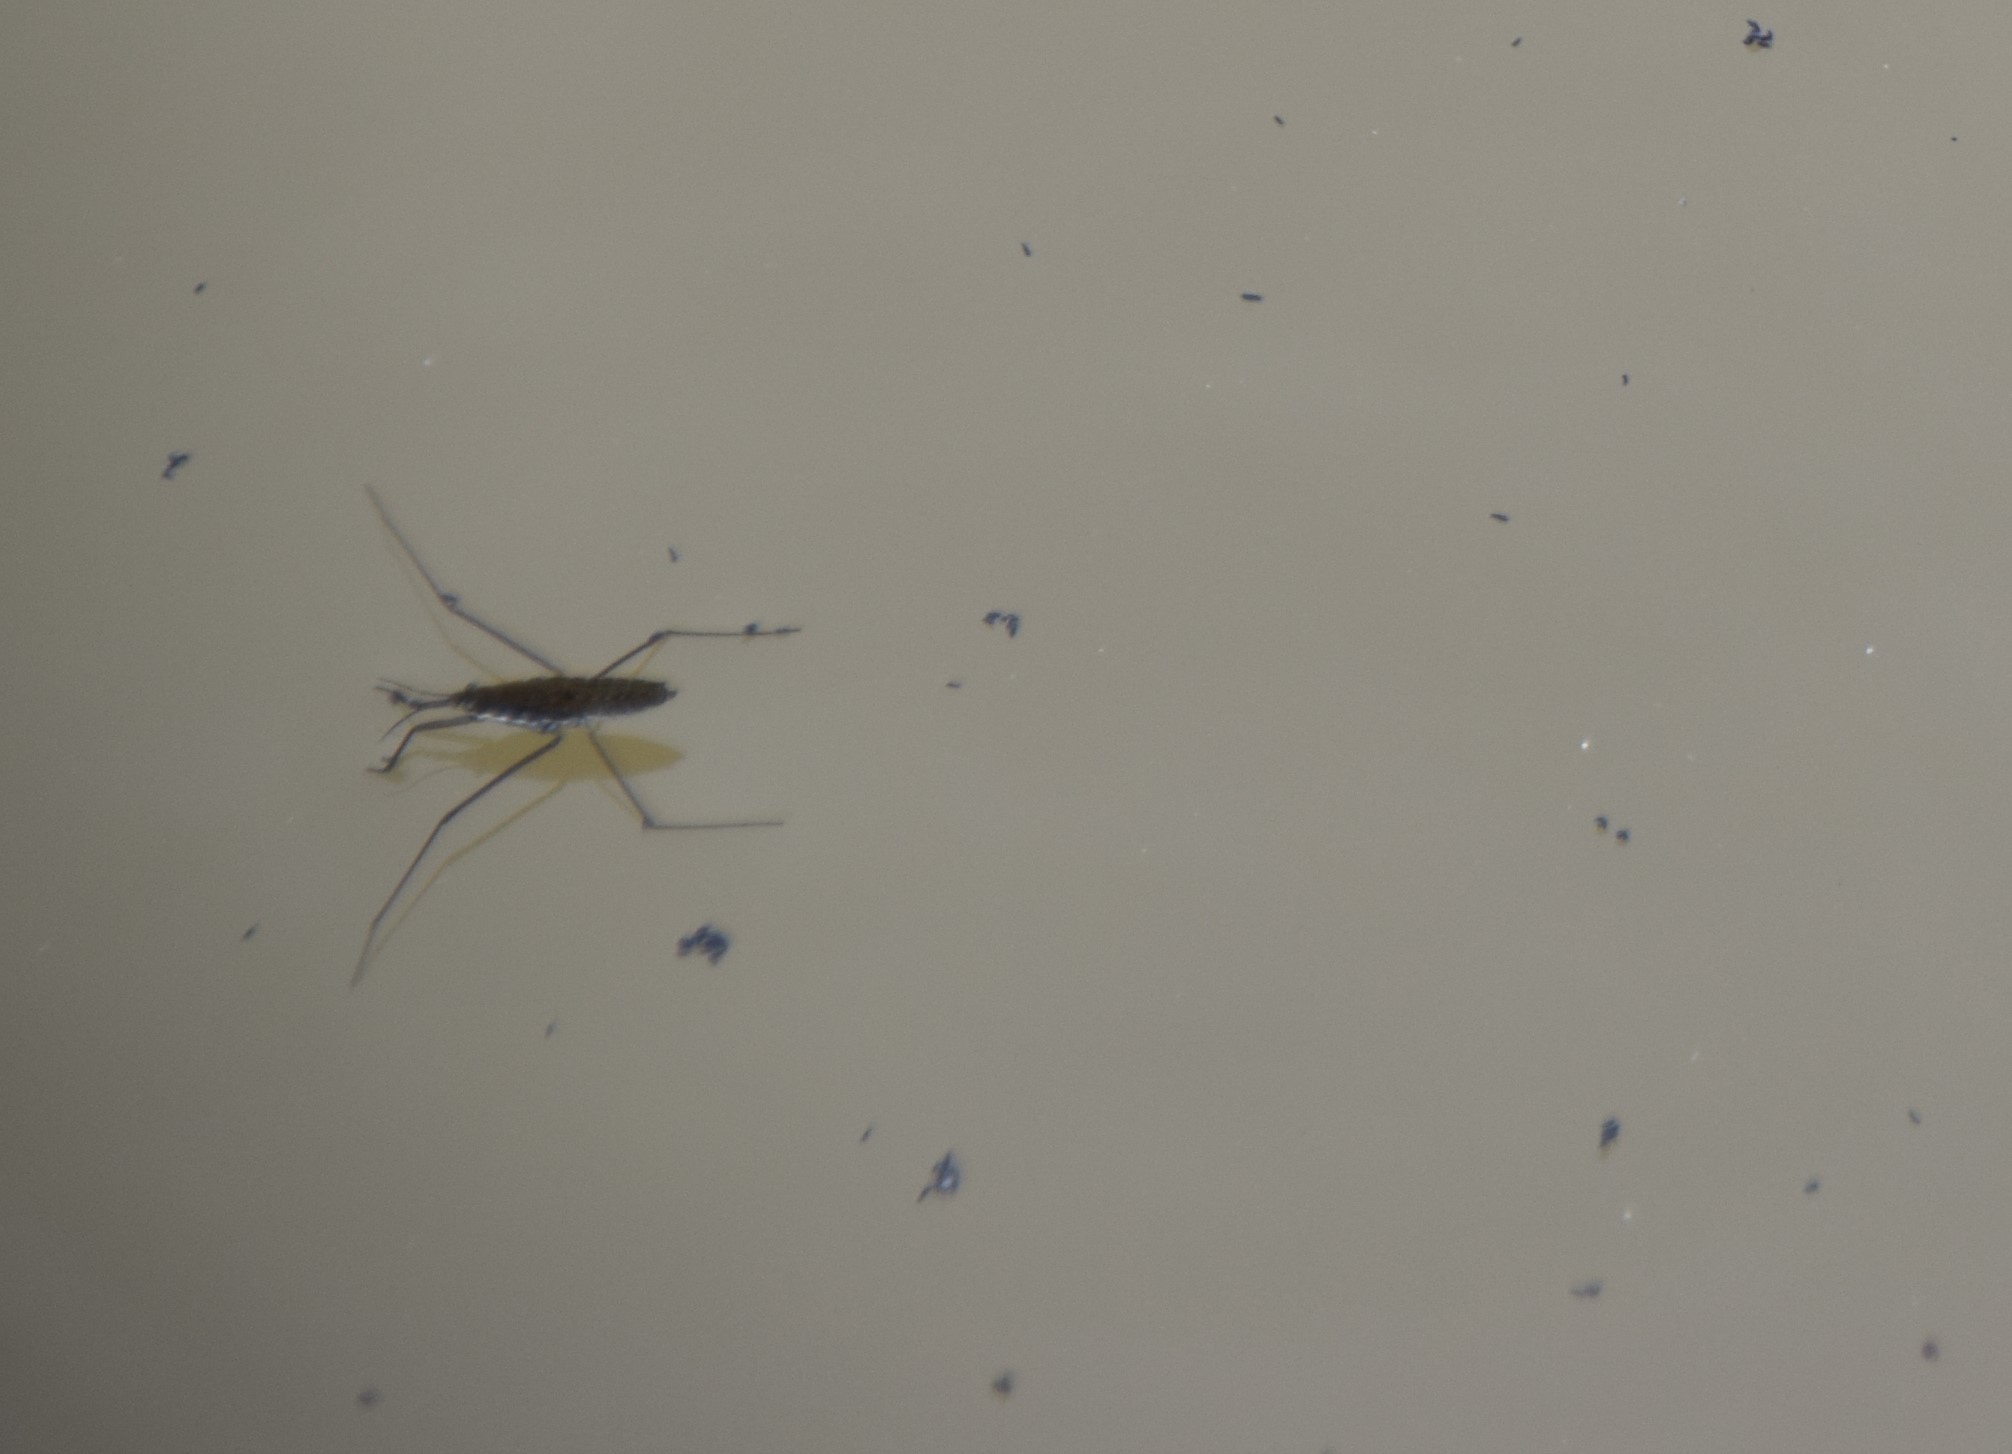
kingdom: Animalia
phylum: Arthropoda
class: Insecta
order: Hemiptera
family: Gerridae
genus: Aquarius
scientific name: Aquarius remigis
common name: Common water strider
